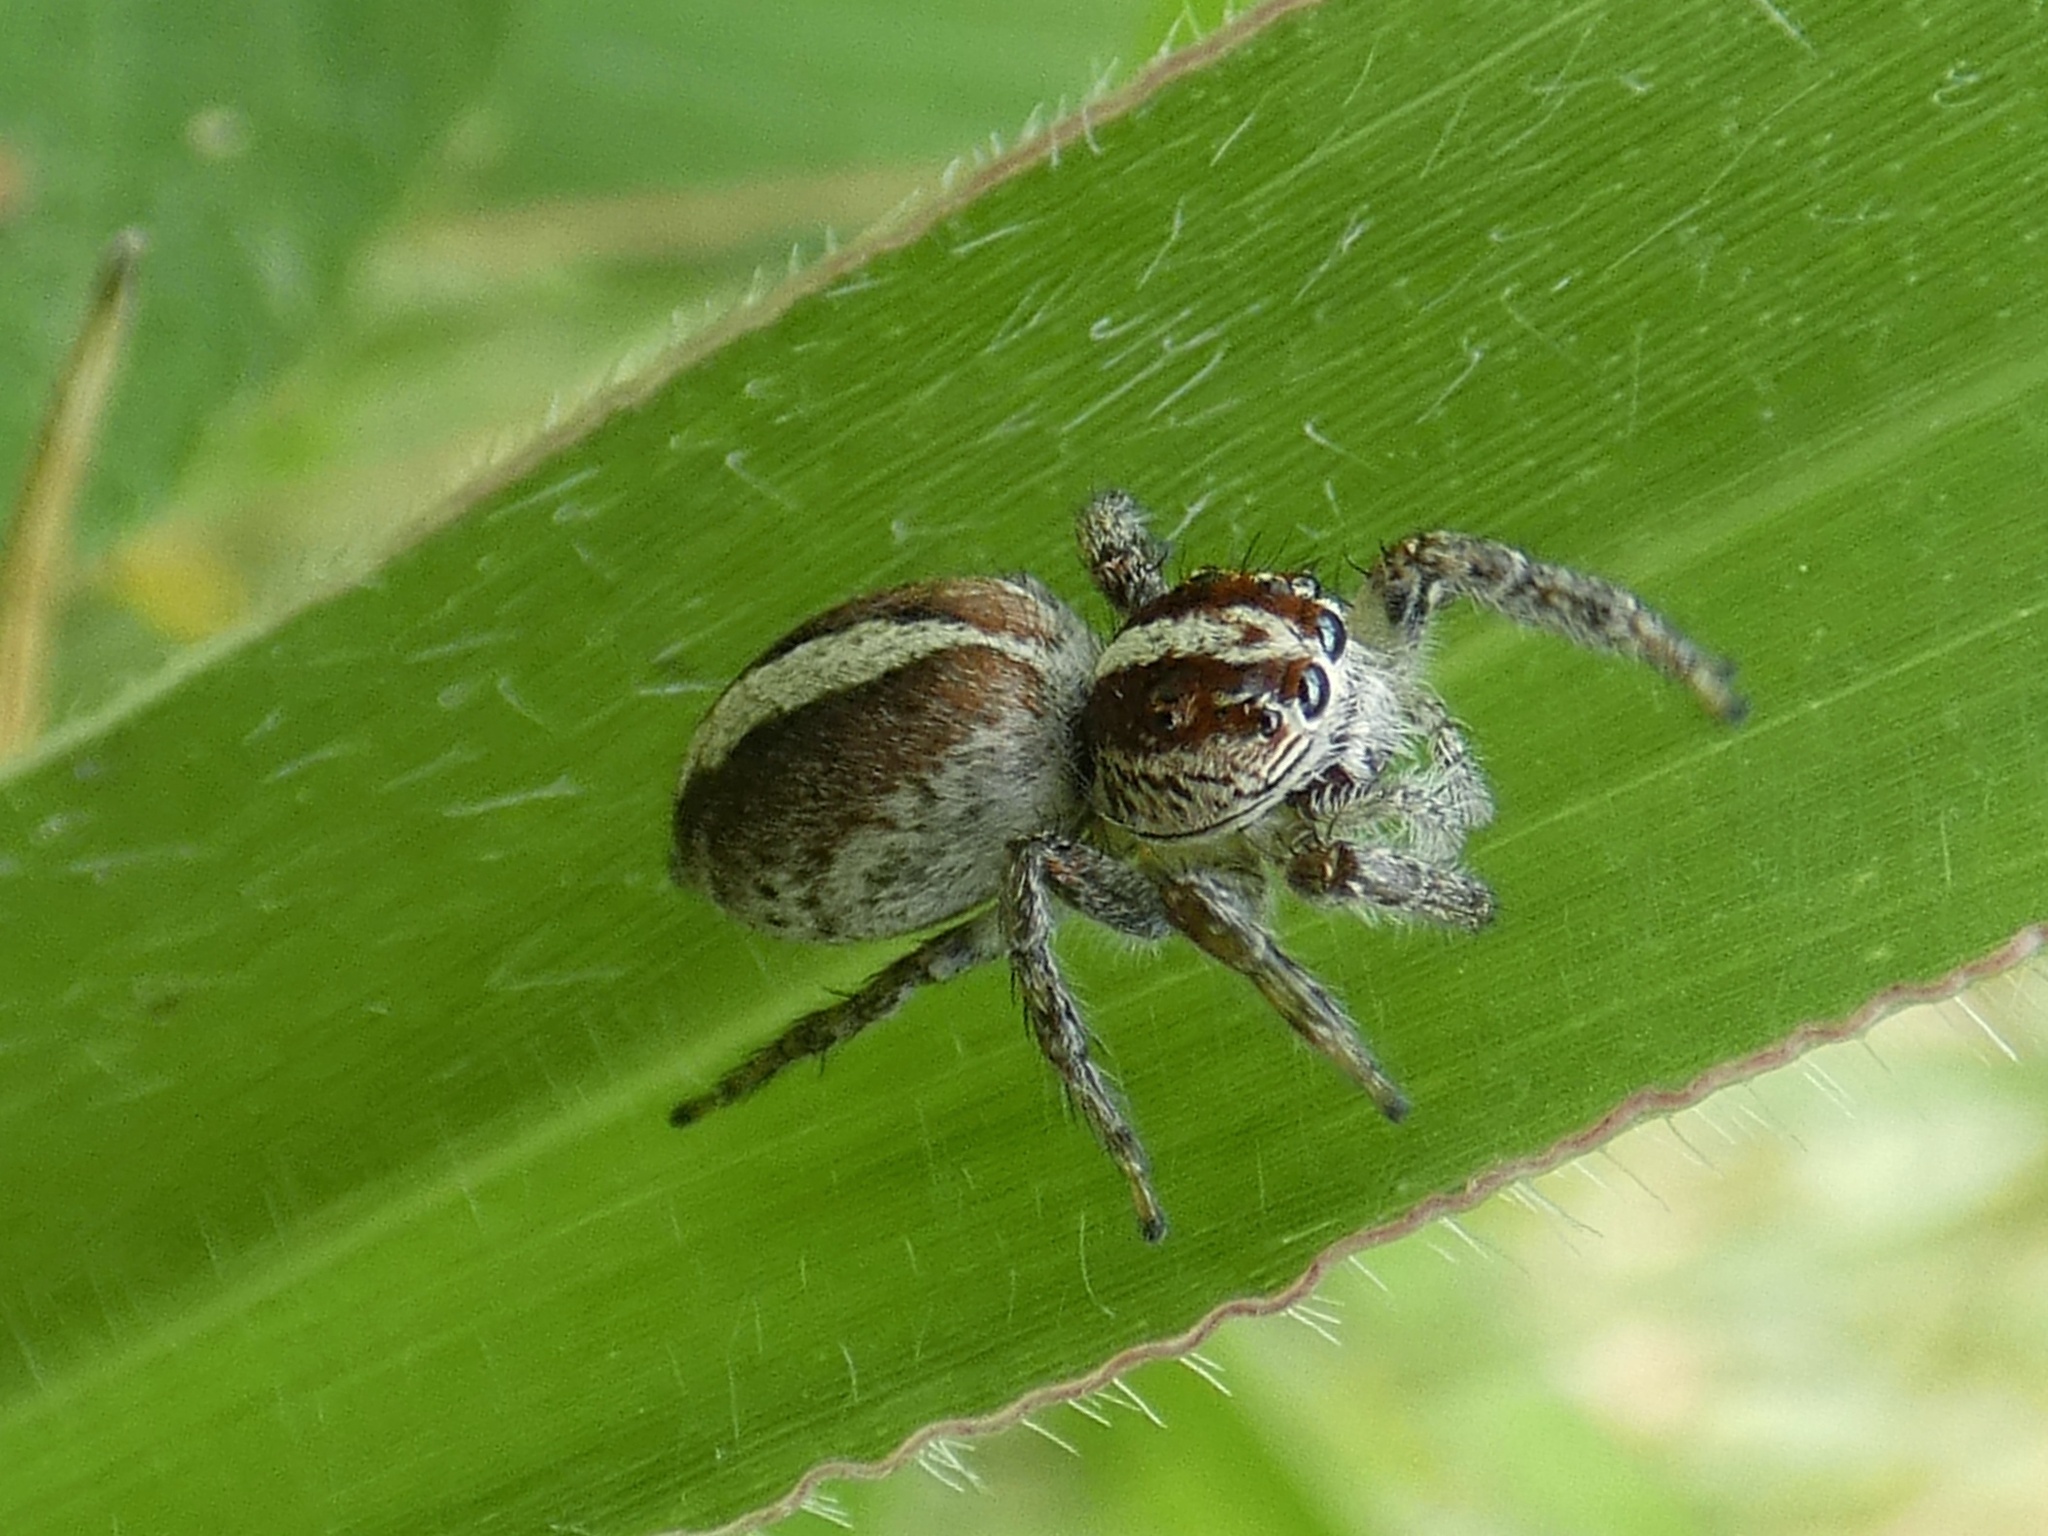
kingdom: Animalia
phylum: Arthropoda
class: Arachnida
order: Araneae
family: Salticidae
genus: Frigga
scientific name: Frigga crocuta
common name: Jumping spiders
